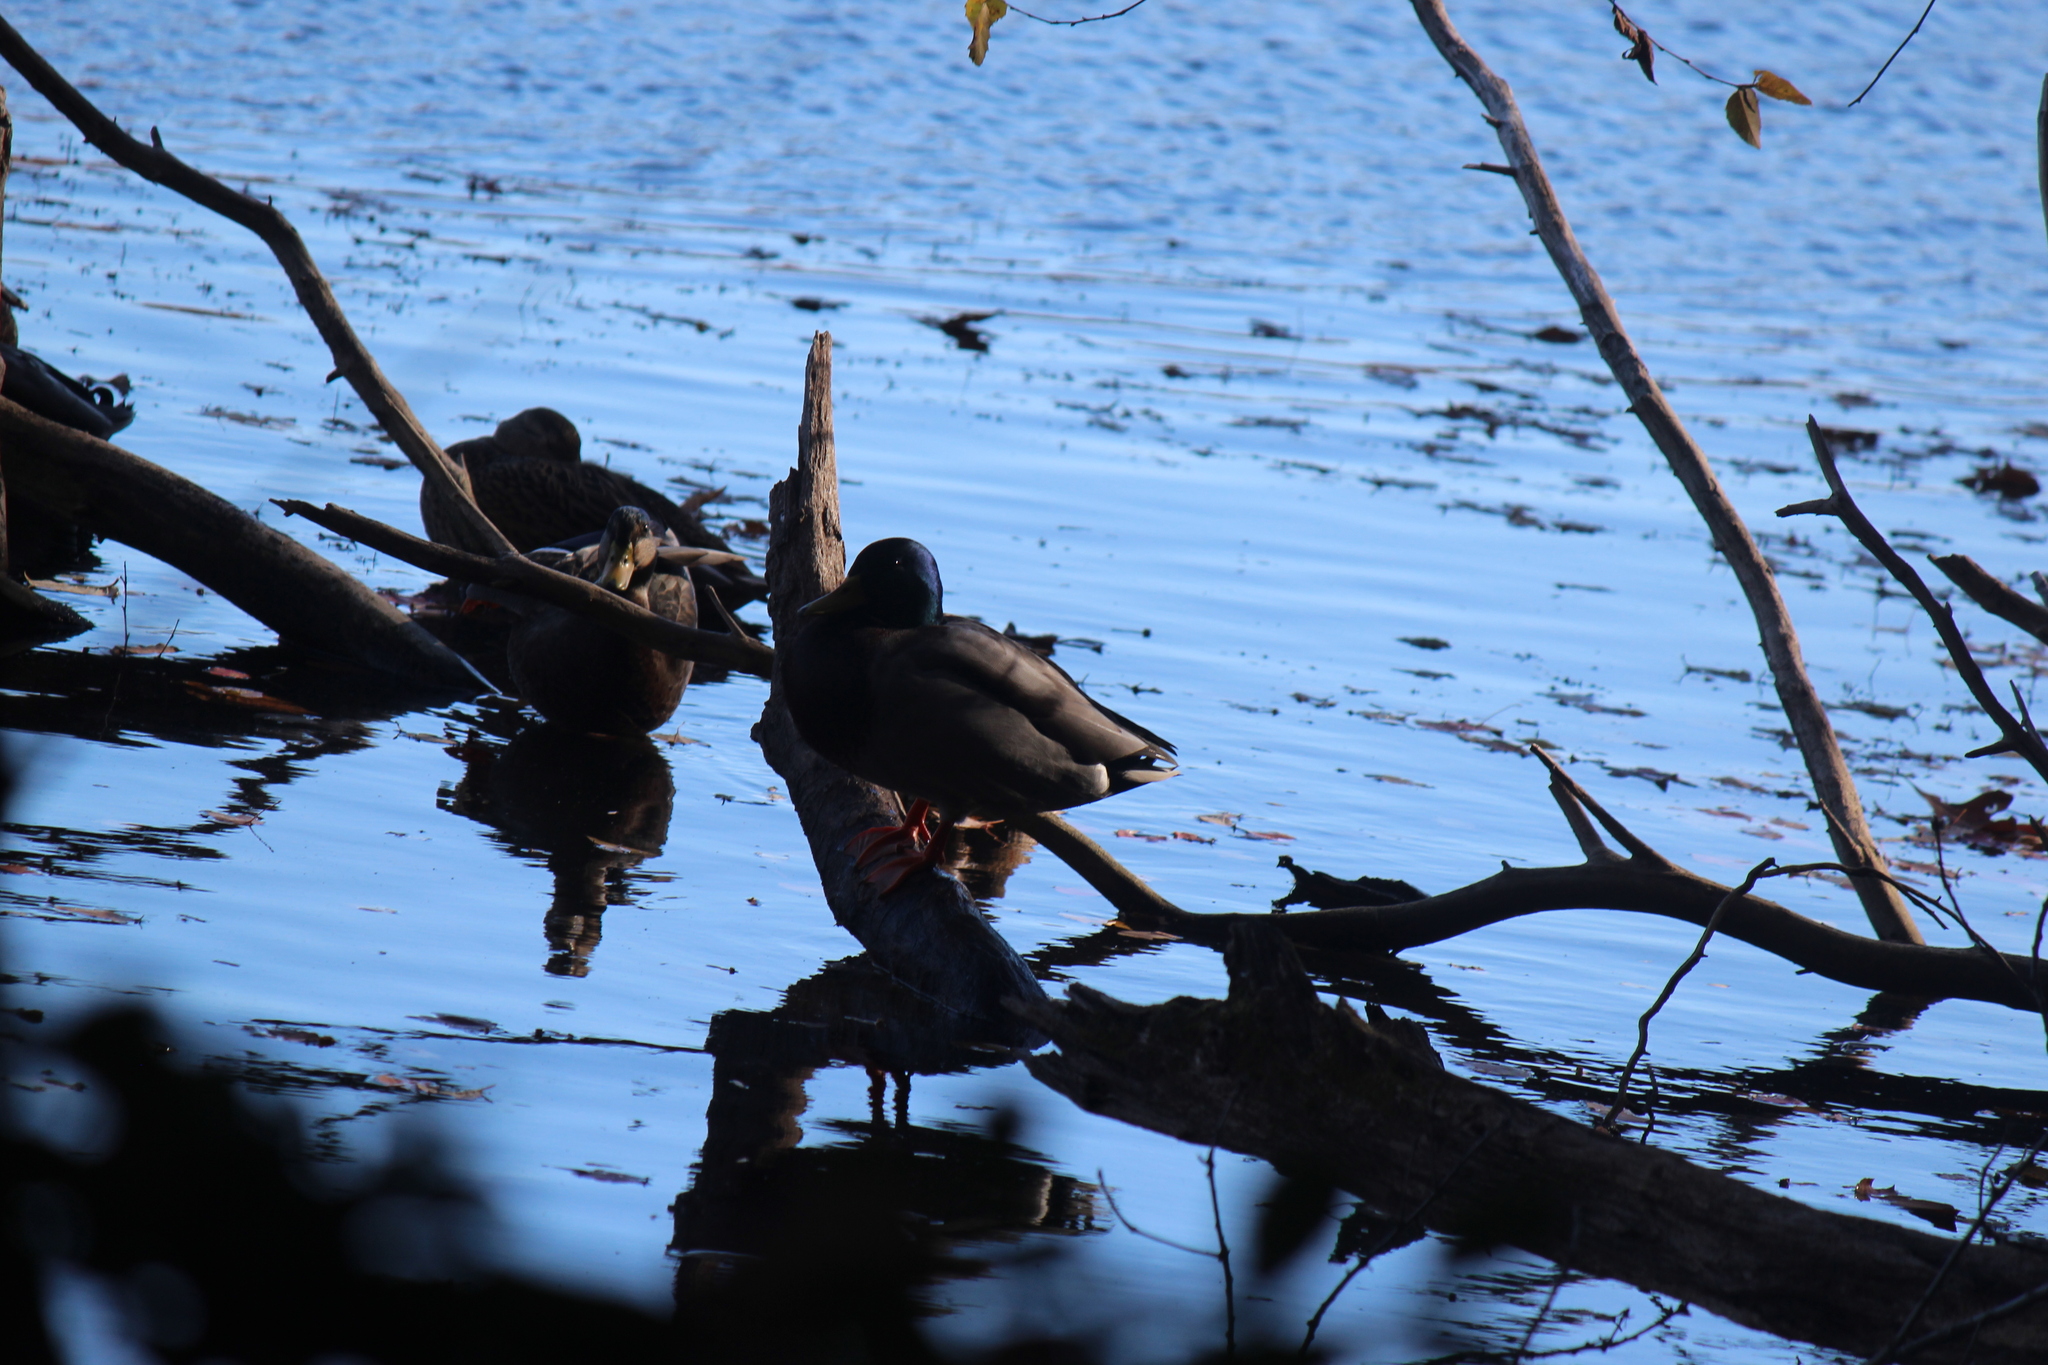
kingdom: Animalia
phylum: Chordata
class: Aves
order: Anseriformes
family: Anatidae
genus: Anas
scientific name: Anas platyrhynchos
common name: Mallard
